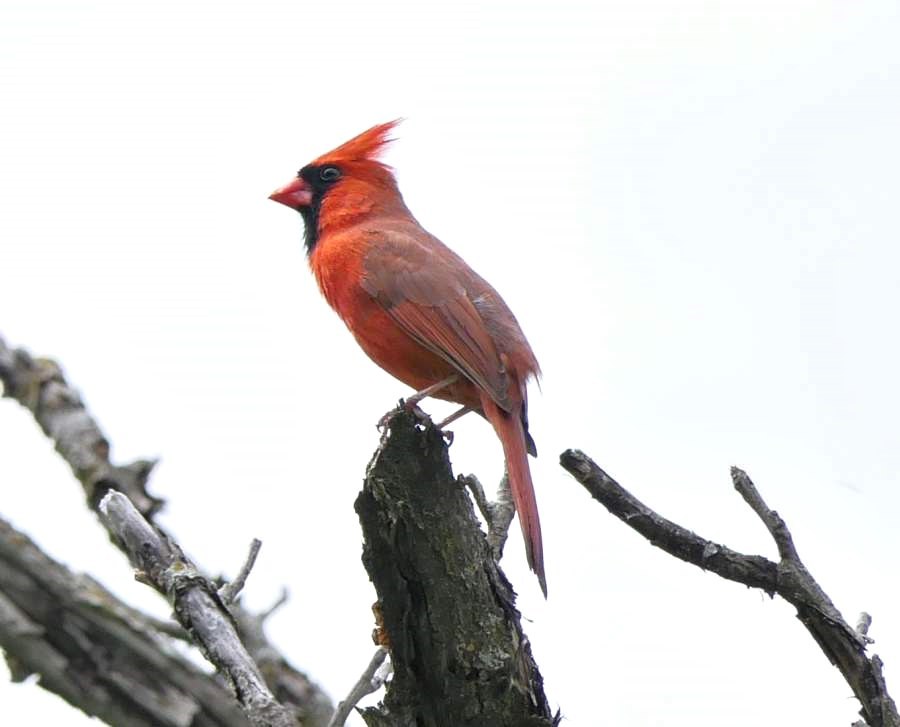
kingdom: Animalia
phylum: Chordata
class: Aves
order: Passeriformes
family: Cardinalidae
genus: Cardinalis
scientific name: Cardinalis cardinalis
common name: Northern cardinal
